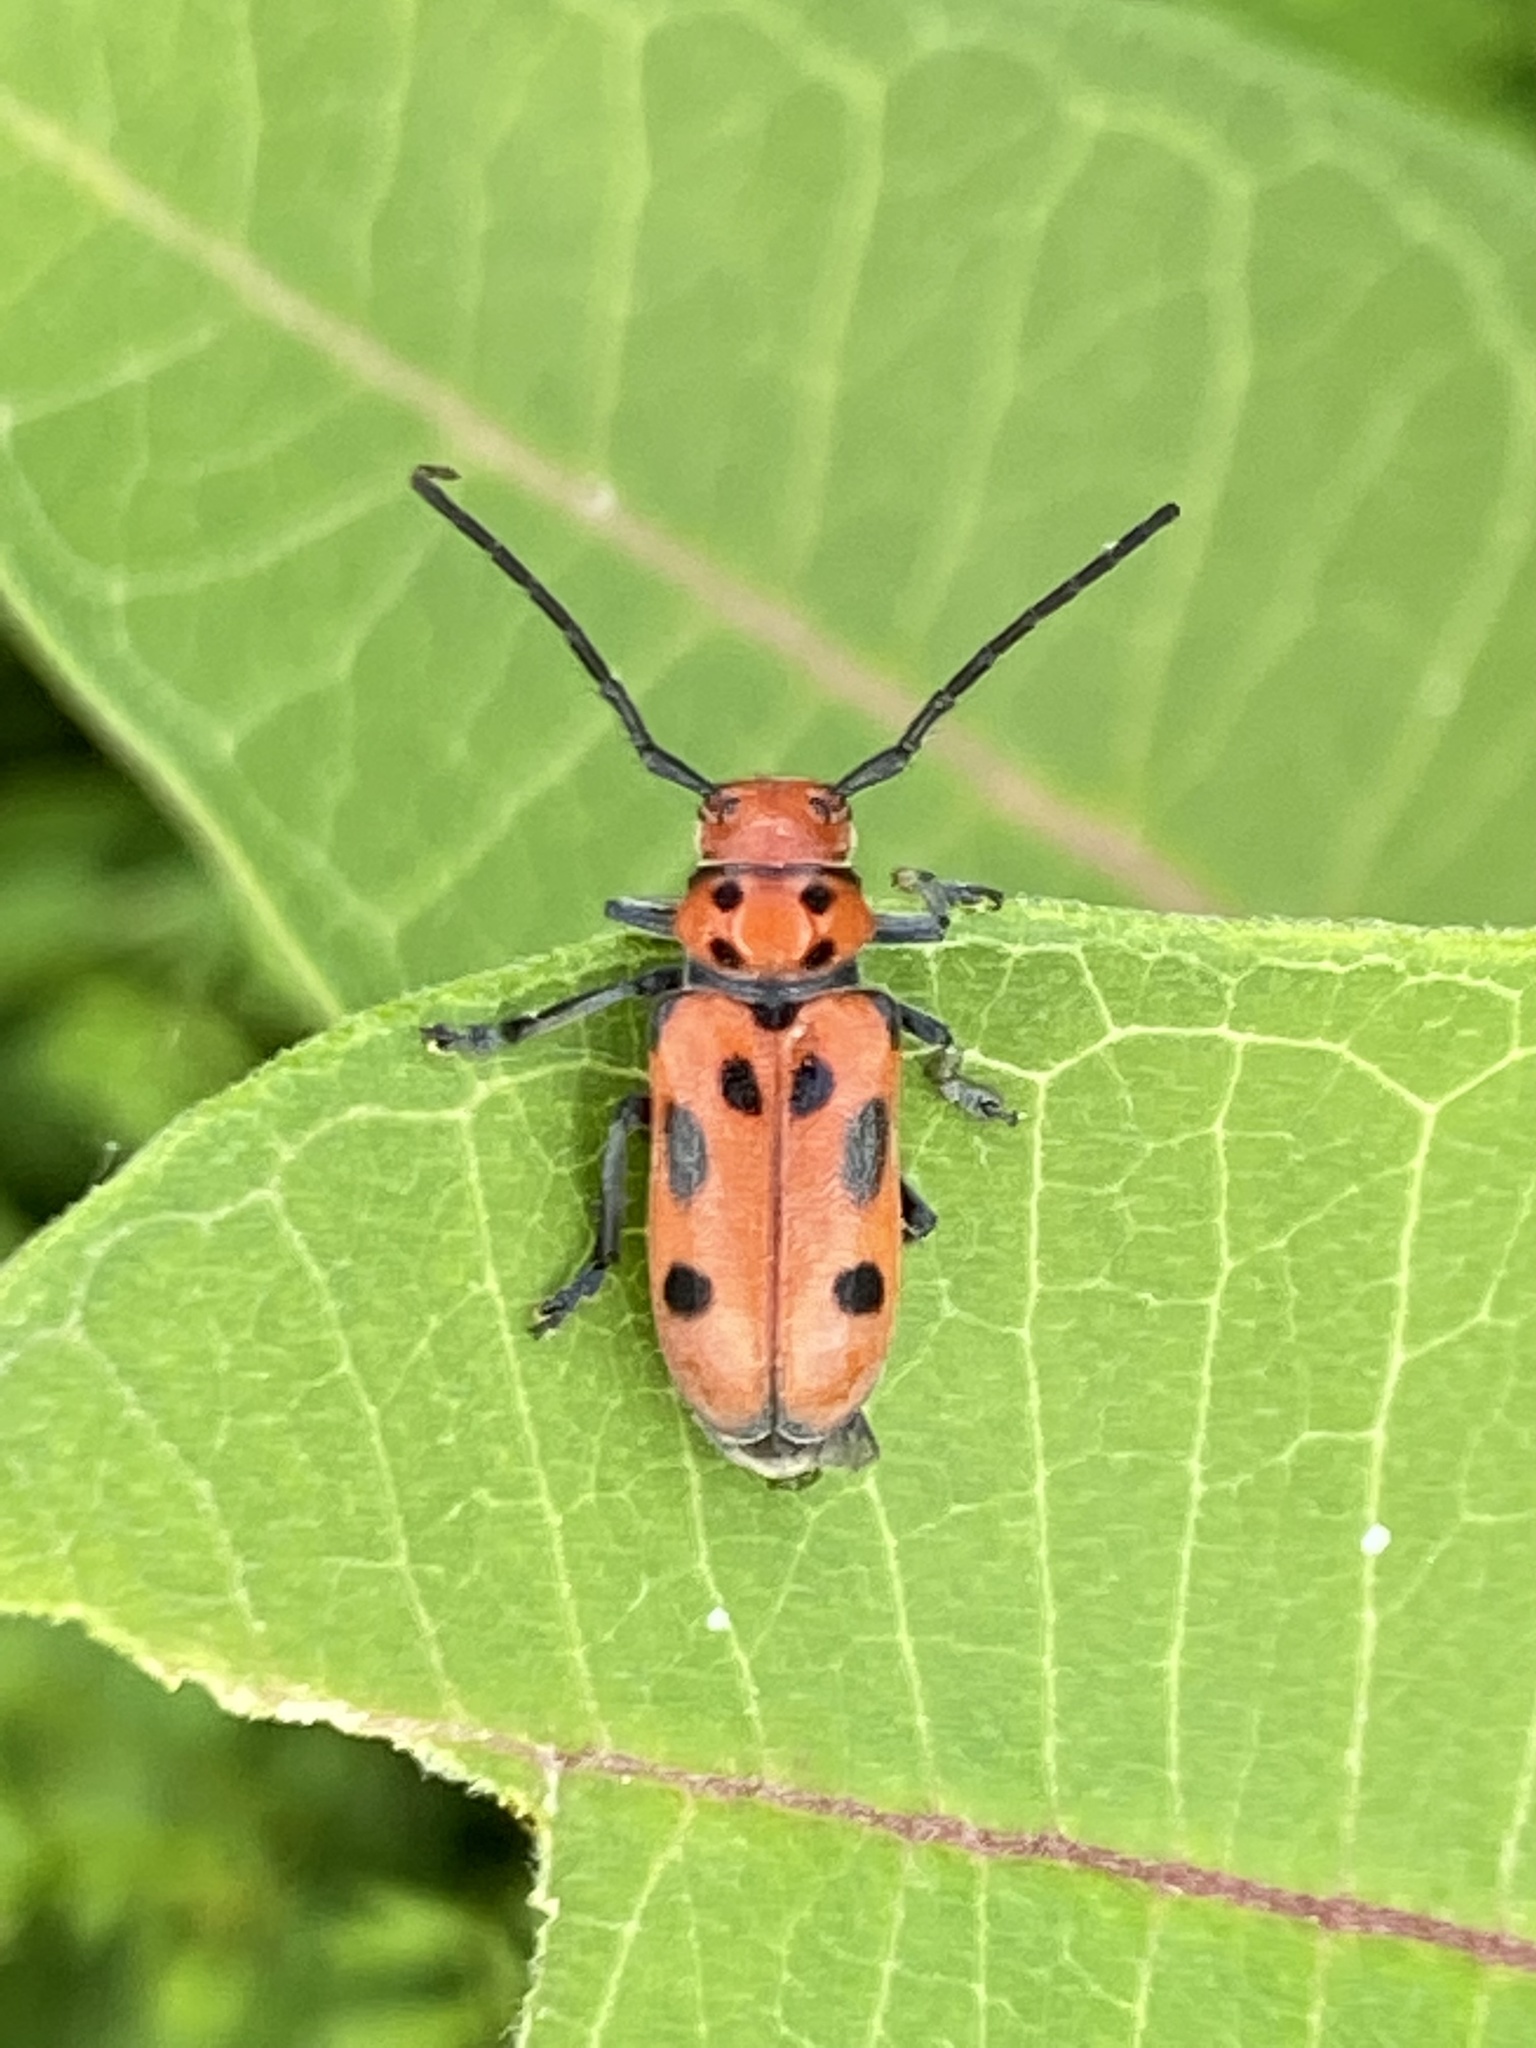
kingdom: Animalia
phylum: Arthropoda
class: Insecta
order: Coleoptera
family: Cerambycidae
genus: Tetraopes
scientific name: Tetraopes tetrophthalmus
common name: Red milkweed beetle
